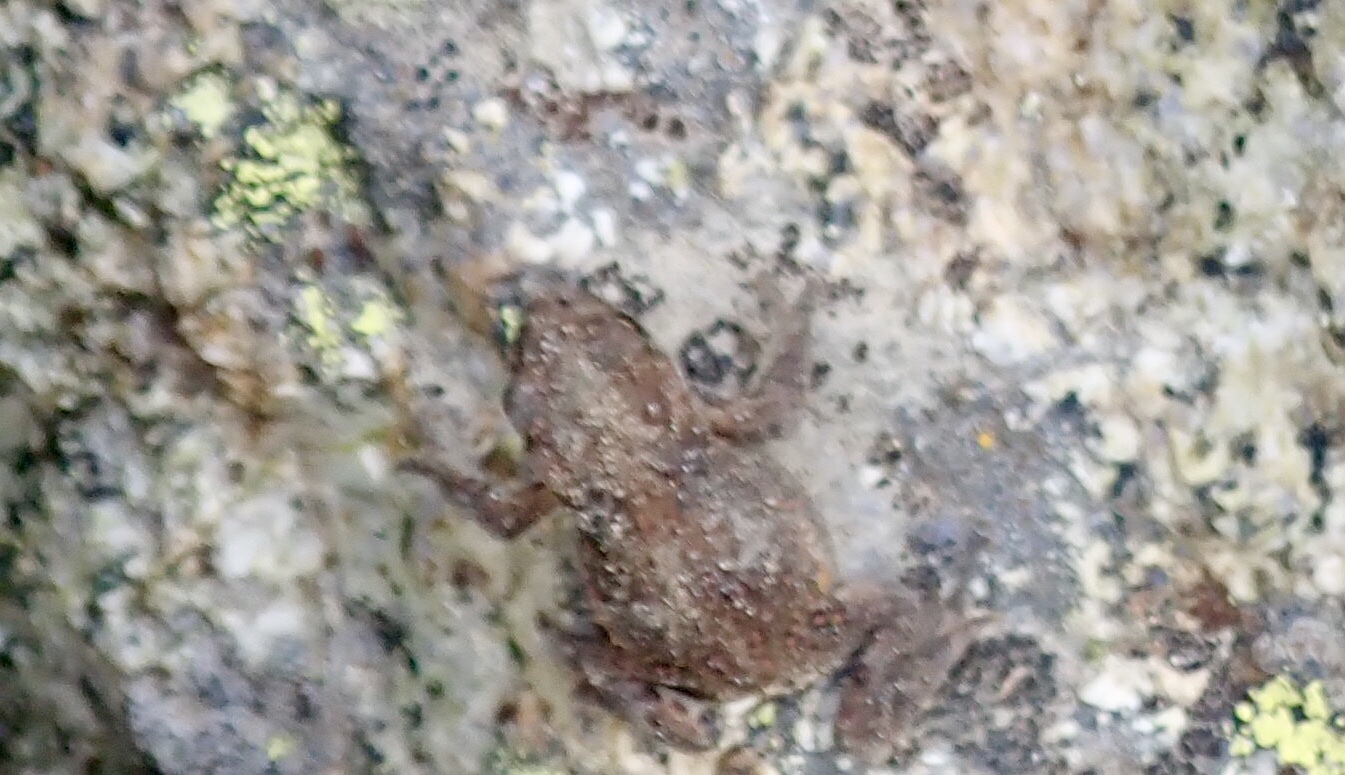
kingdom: Animalia
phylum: Chordata
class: Amphibia
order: Anura
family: Bufonidae
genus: Anaxyrus
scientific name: Anaxyrus boreas
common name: Western toad
